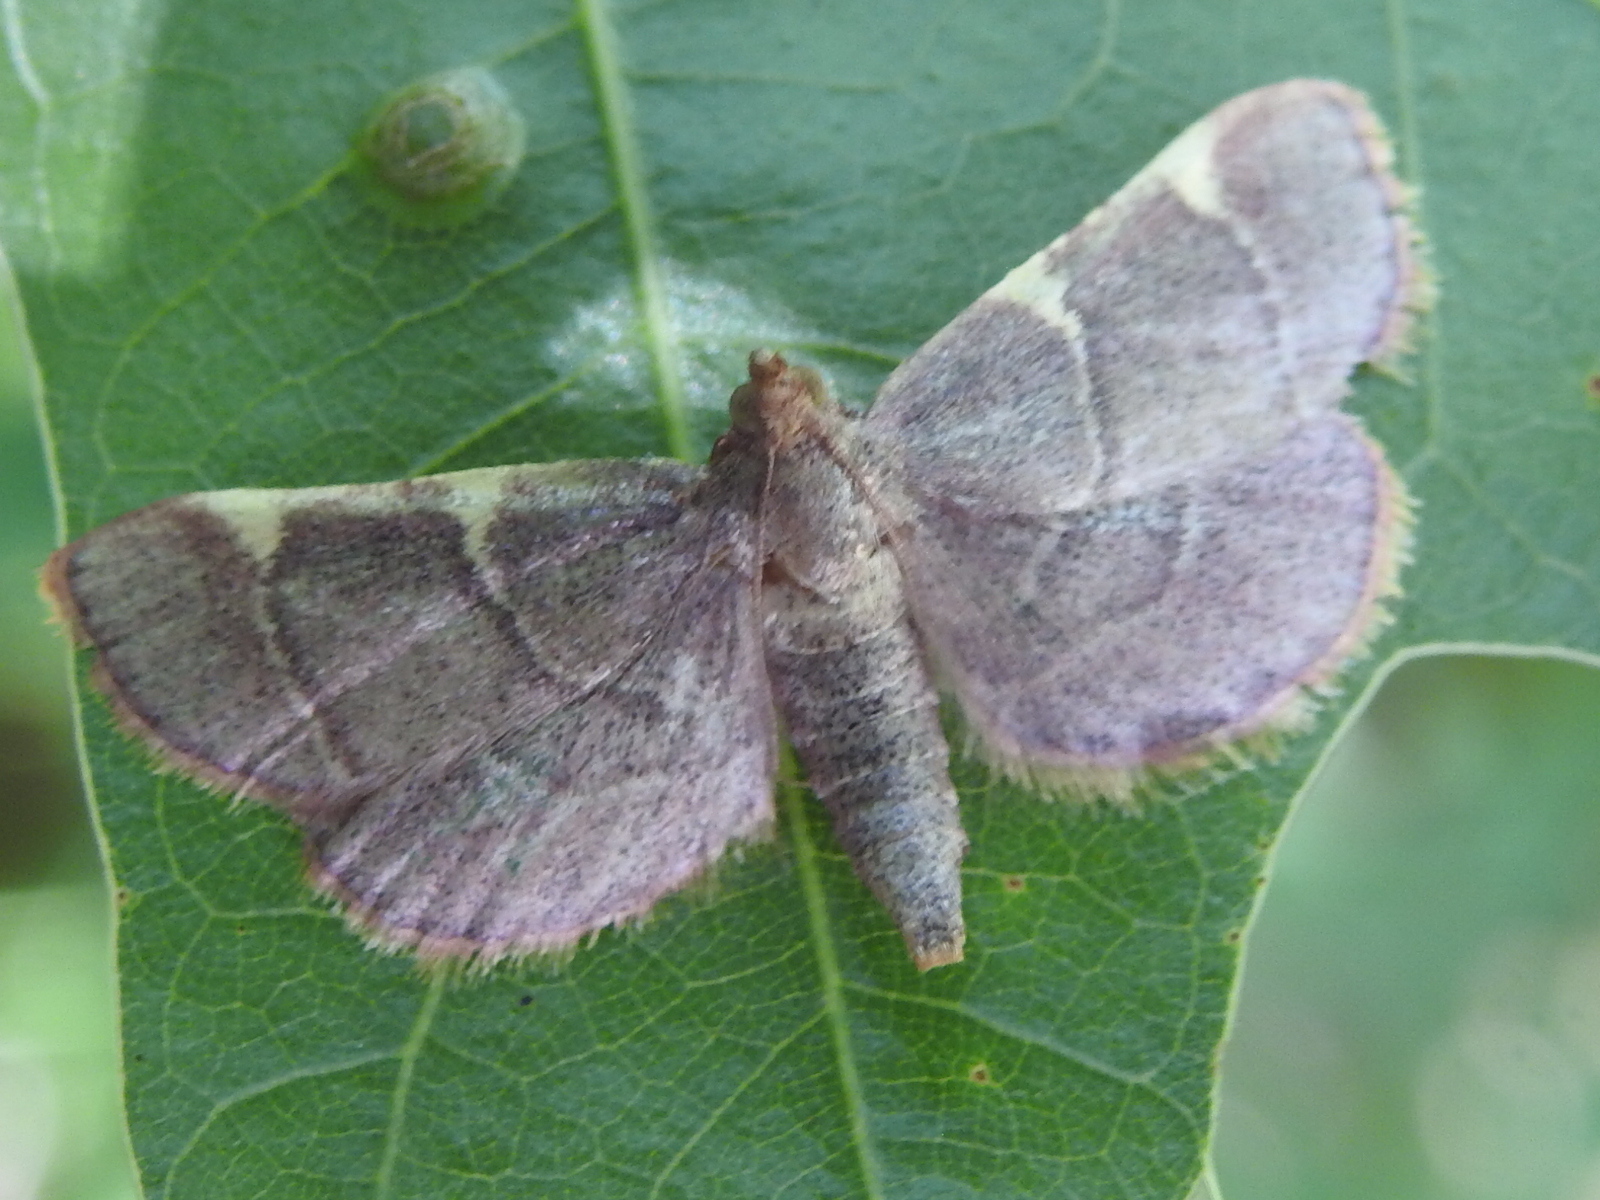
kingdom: Animalia
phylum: Arthropoda
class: Insecta
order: Lepidoptera
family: Pyralidae
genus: Hypsopygia
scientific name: Hypsopygia olinalis
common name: Yellow-fringed dolichomia moth
